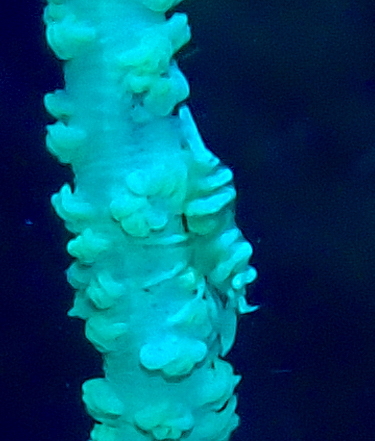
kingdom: Animalia
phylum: Arthropoda
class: Malacostraca
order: Decapoda
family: Palaemonidae
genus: Pontonides
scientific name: Pontonides ankeri
